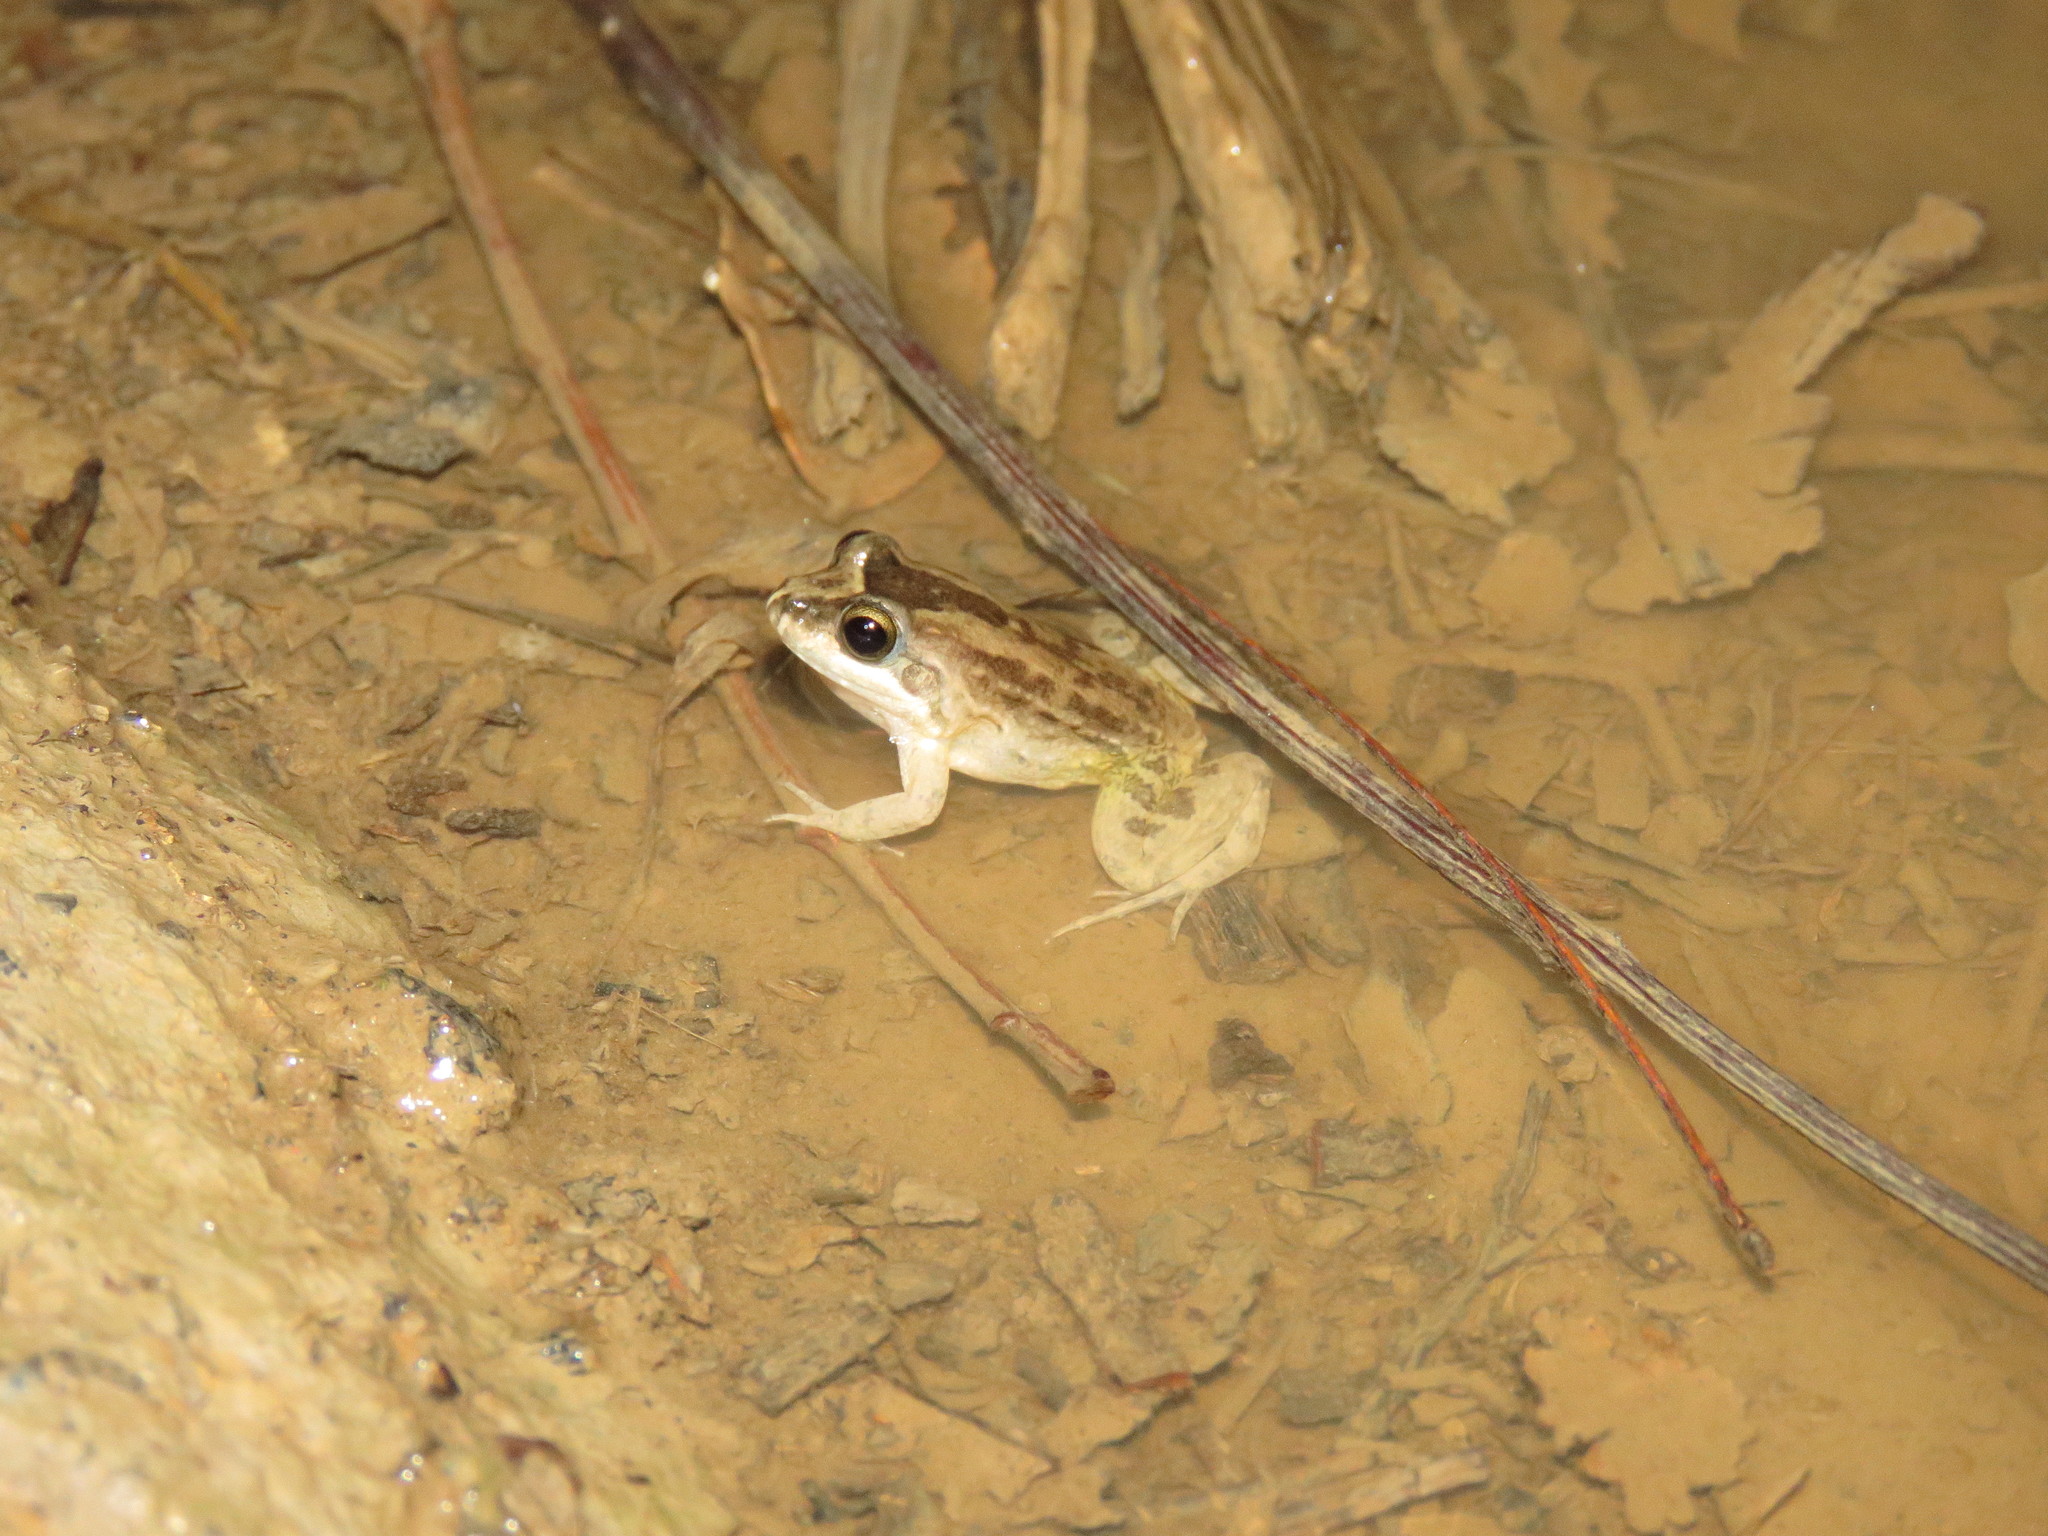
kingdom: Animalia
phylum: Chordata
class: Amphibia
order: Anura
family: Leptodactylidae
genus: Leptodactylus
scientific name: Leptodactylus leptodactyloides
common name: Common thin-toed frog
